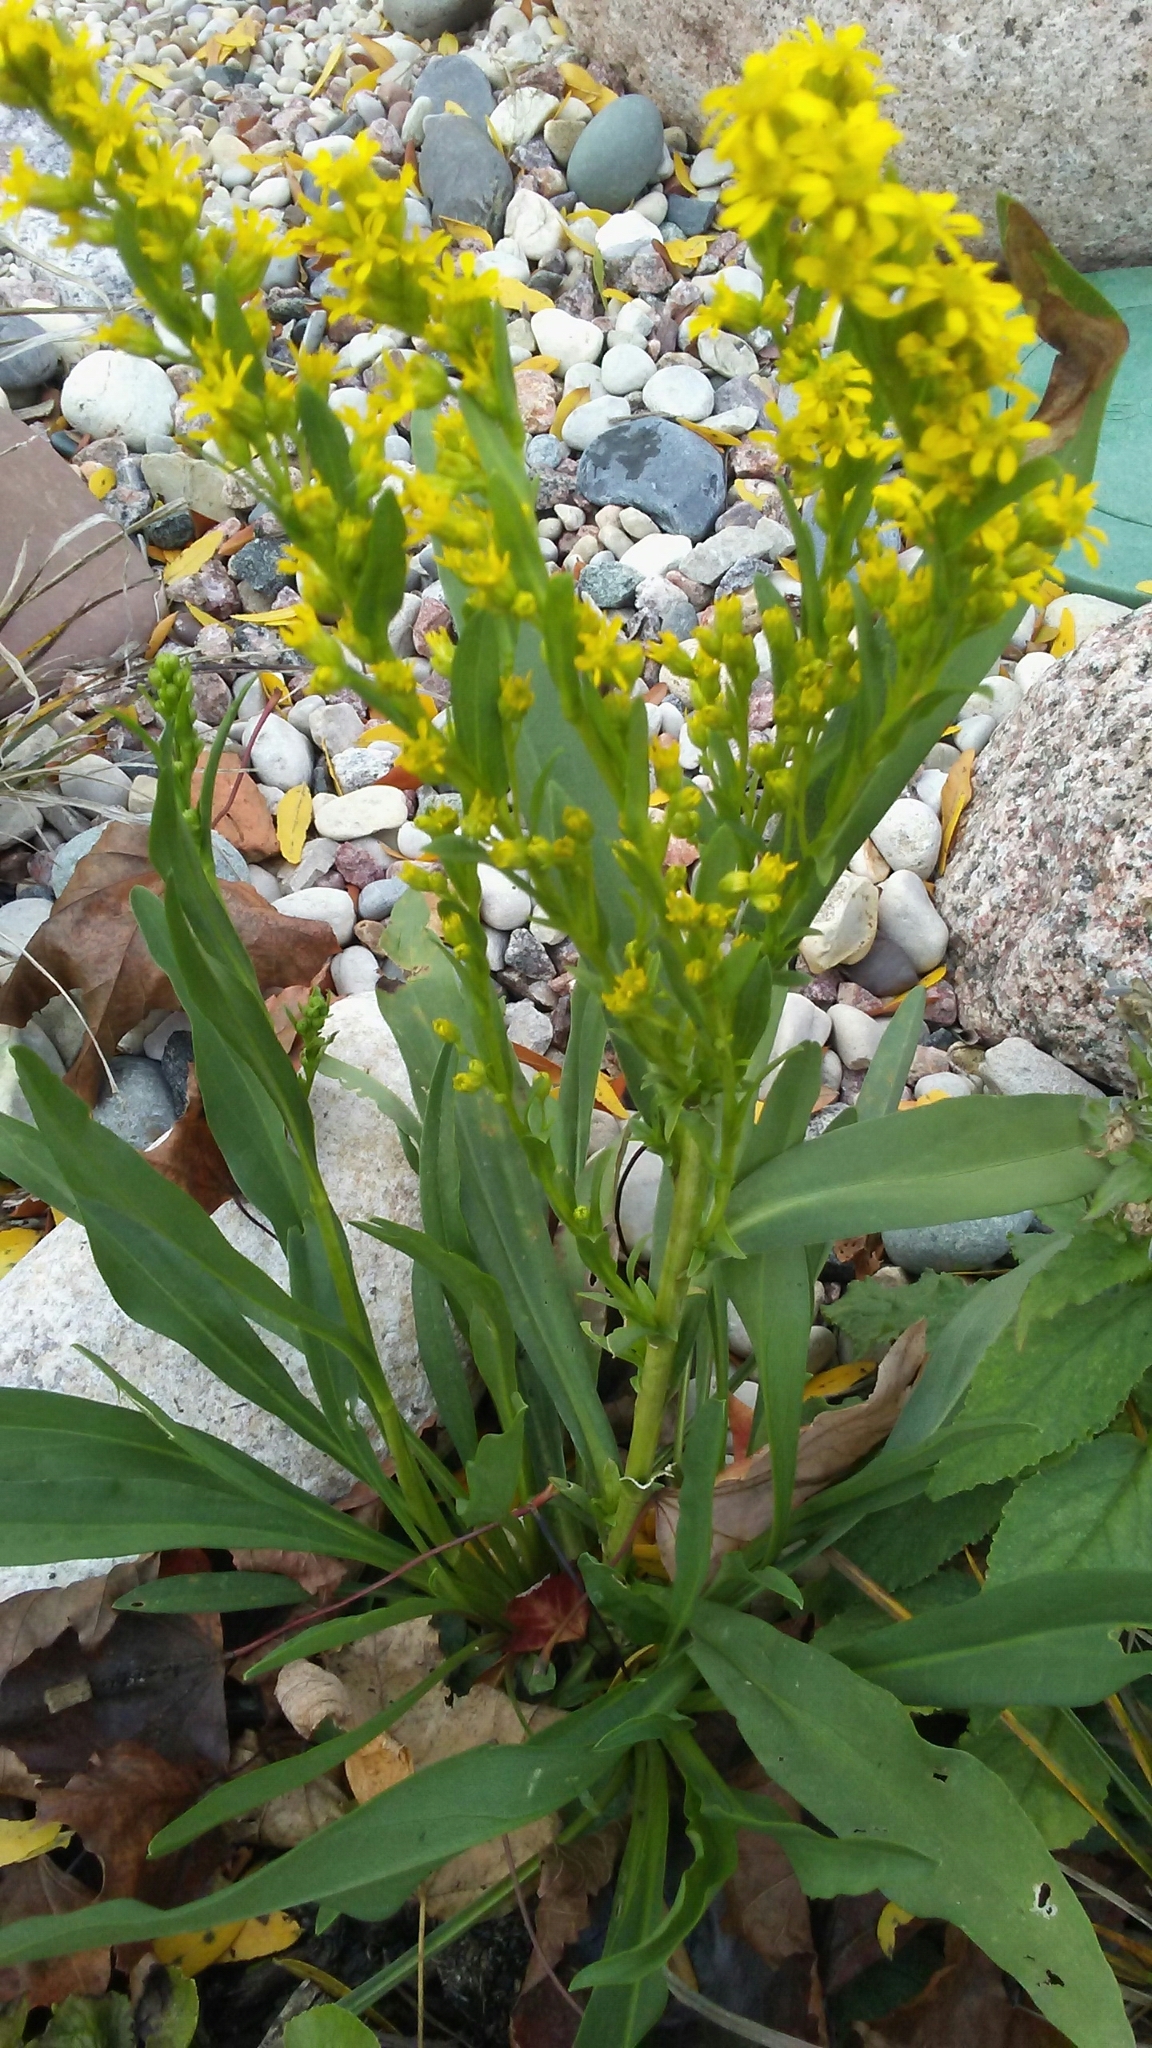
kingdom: Plantae
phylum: Tracheophyta
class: Magnoliopsida
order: Asterales
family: Asteraceae
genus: Solidago
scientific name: Solidago sempervirens
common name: Salt-marsh goldenrod
